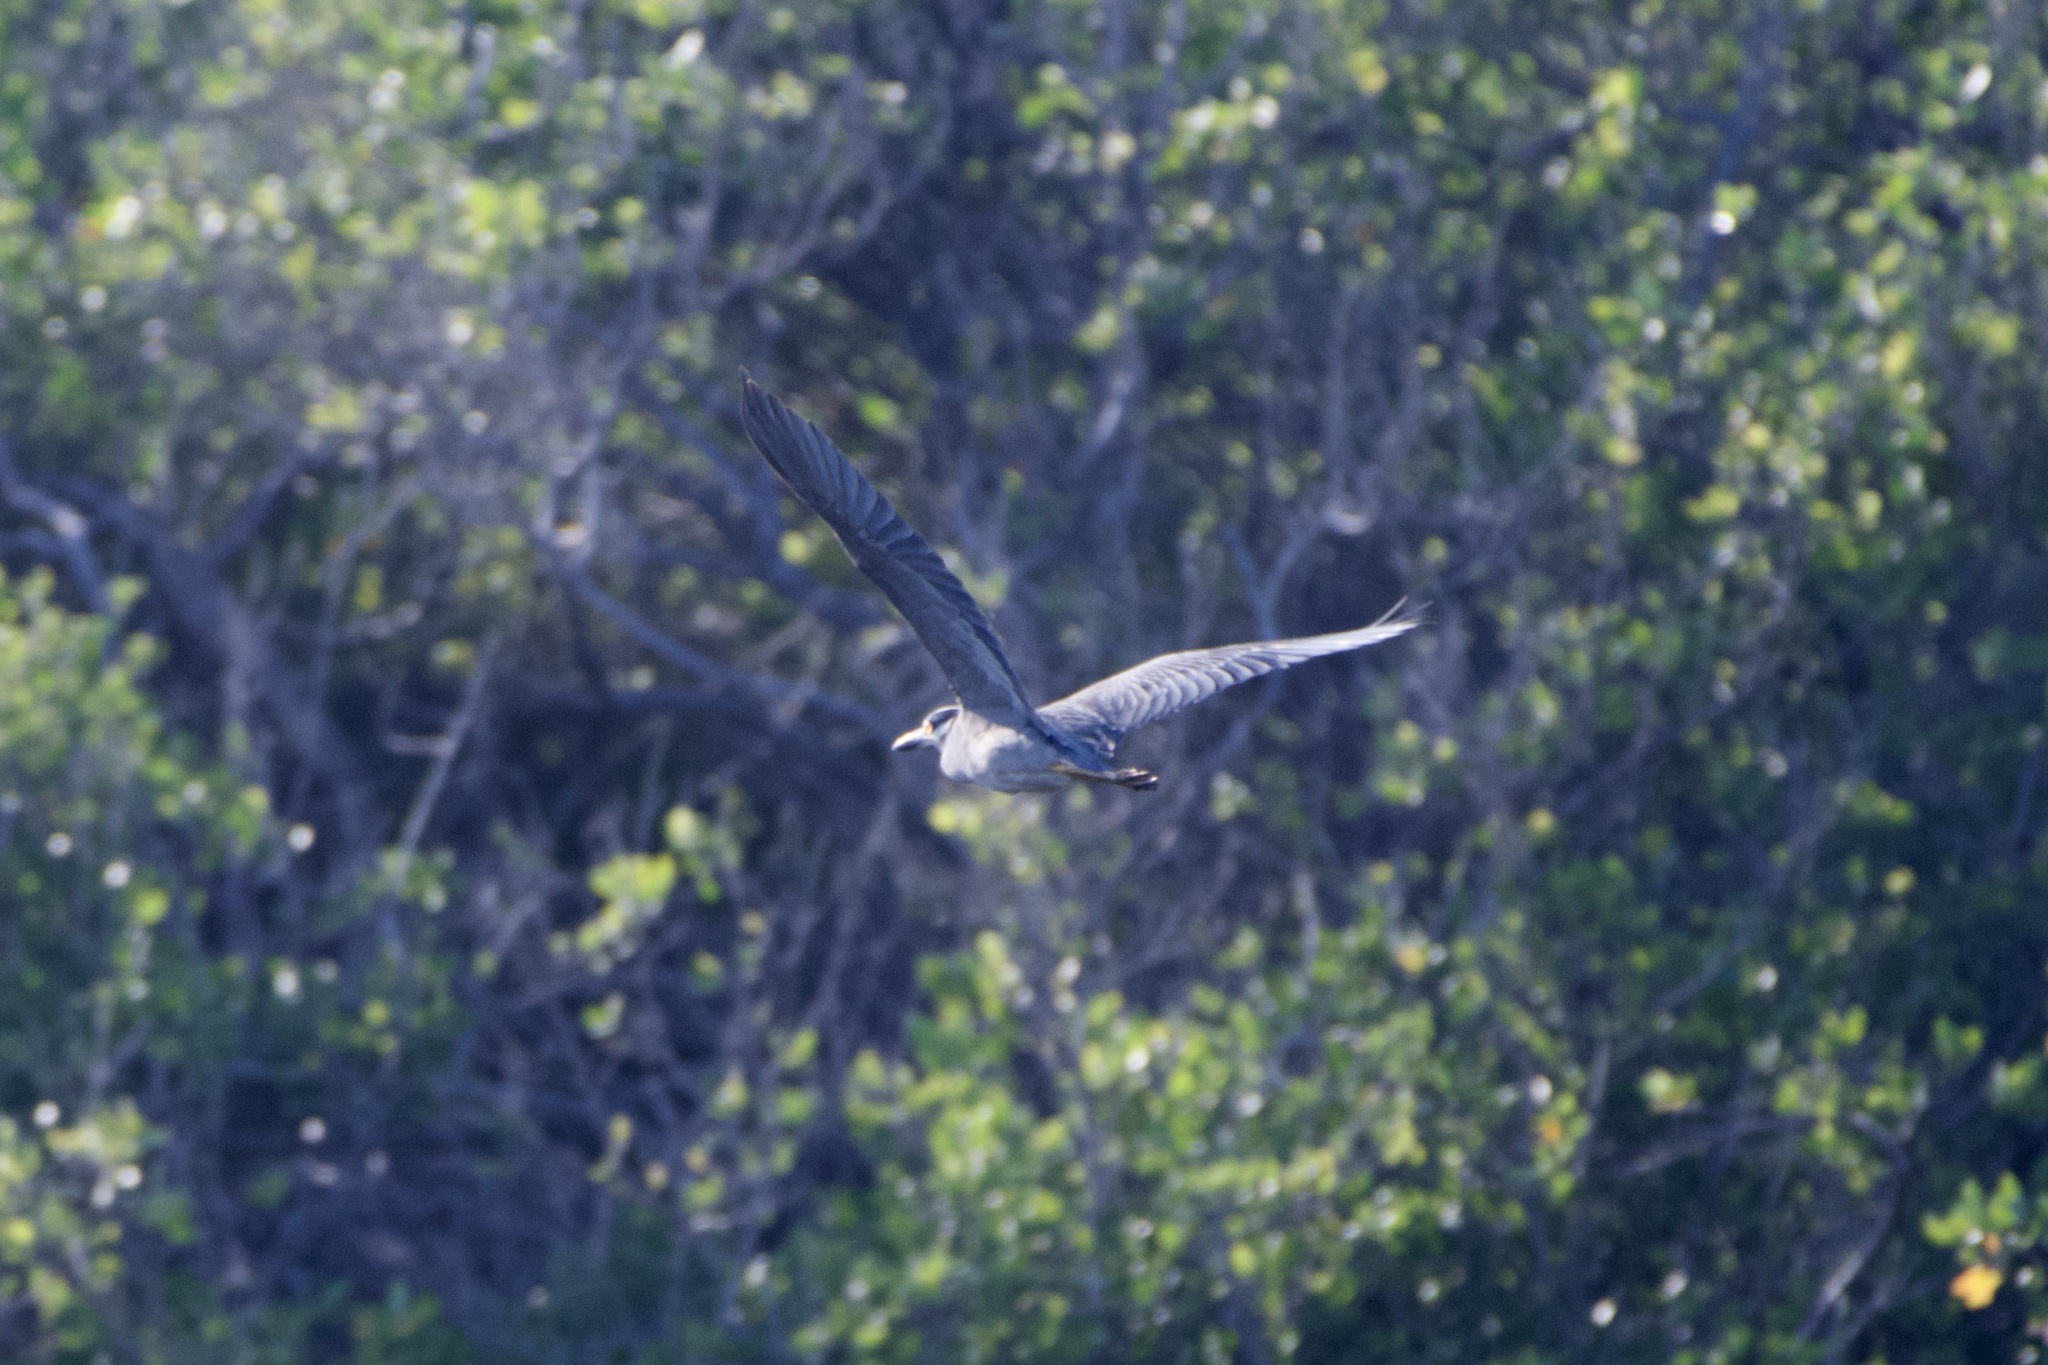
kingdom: Animalia
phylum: Chordata
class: Aves
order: Pelecaniformes
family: Ardeidae
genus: Nyctanassa
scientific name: Nyctanassa violacea
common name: Yellow-crowned night heron
